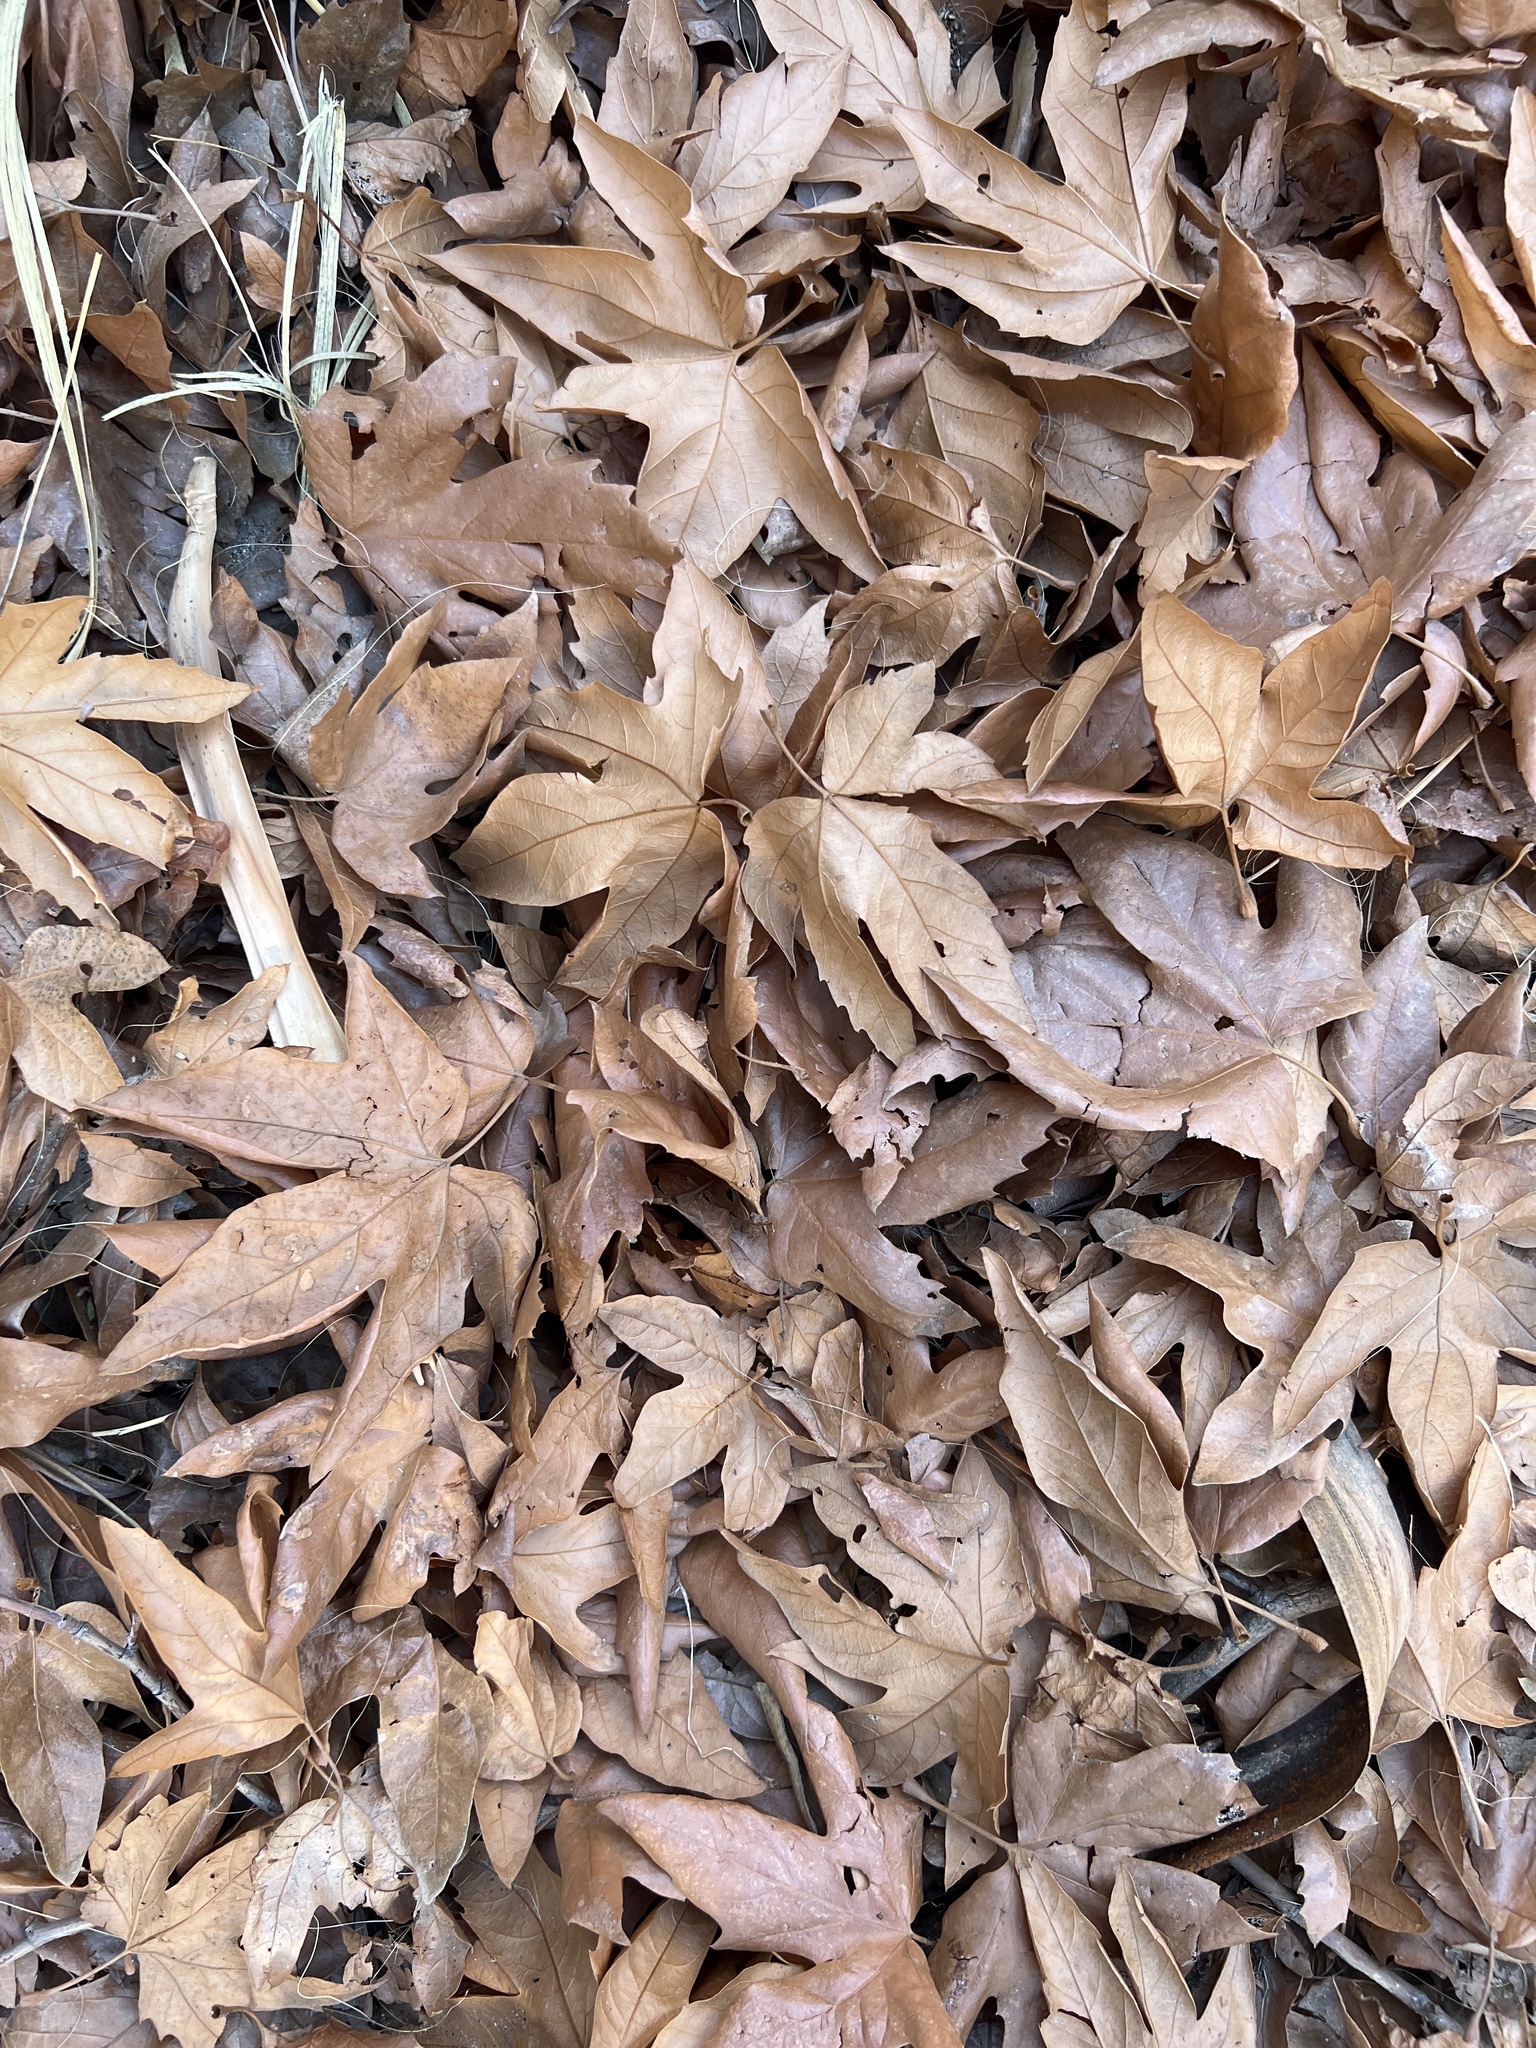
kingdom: Plantae
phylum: Tracheophyta
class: Magnoliopsida
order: Proteales
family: Platanaceae
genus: Platanus
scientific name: Platanus racemosa
